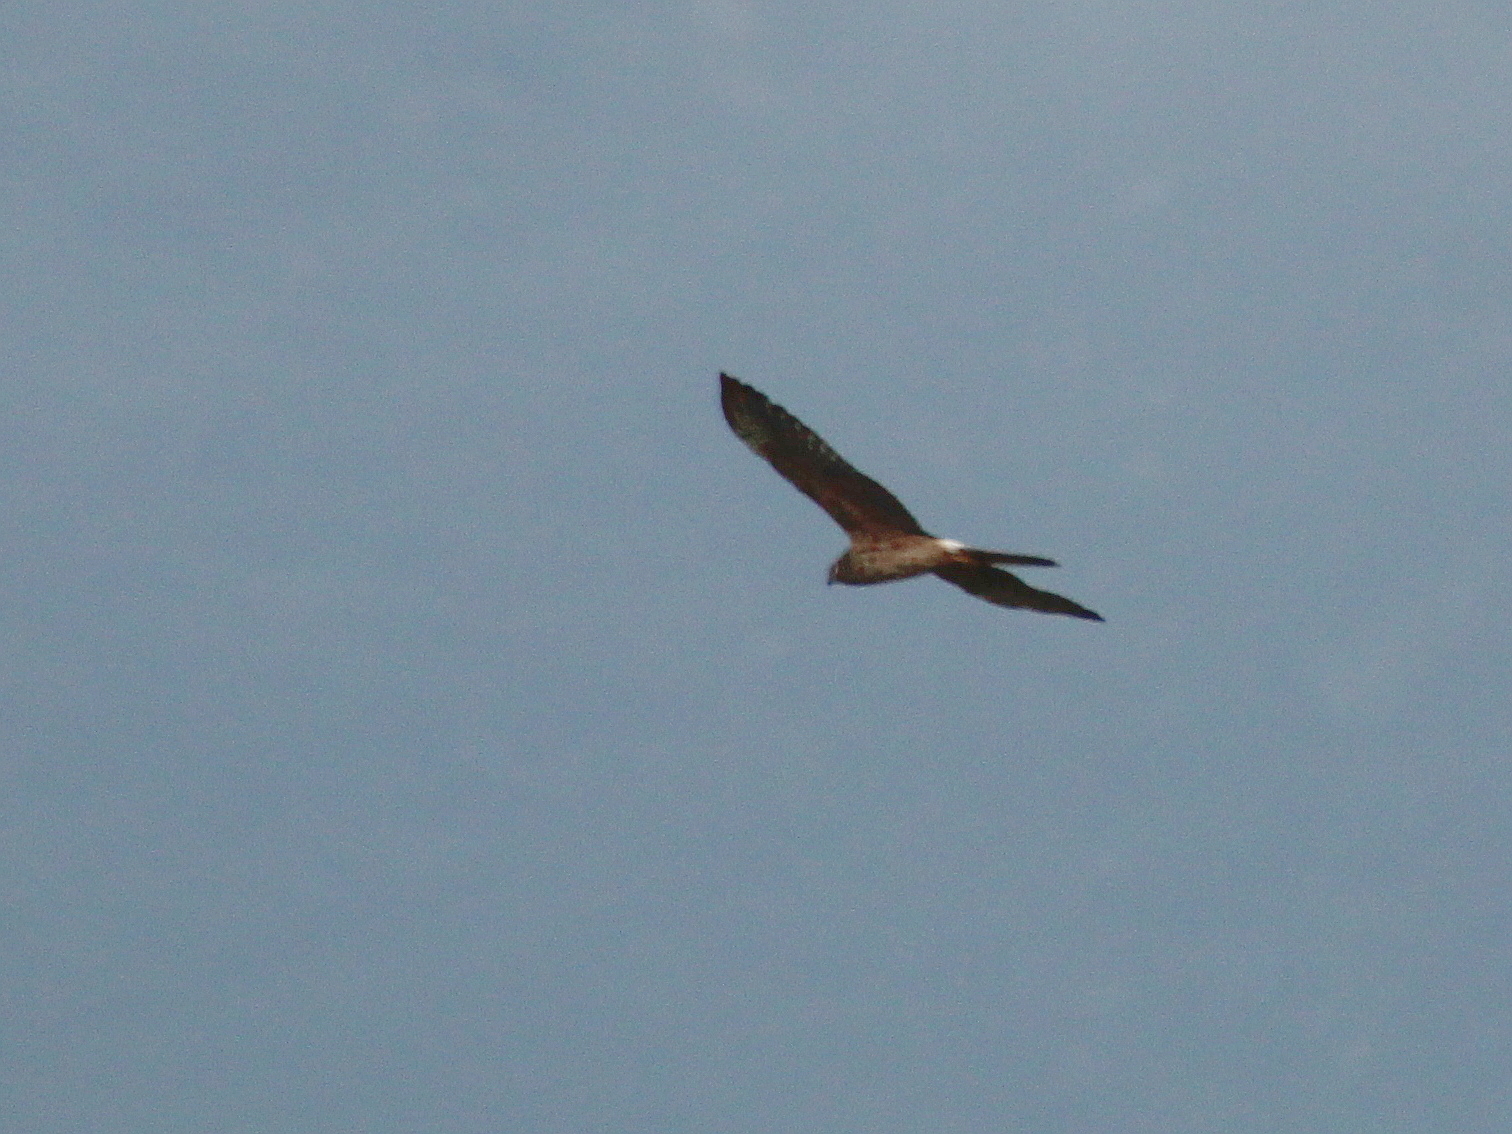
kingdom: Animalia
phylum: Chordata
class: Aves
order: Accipitriformes
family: Accipitridae
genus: Circus
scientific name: Circus pygargus
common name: Montagu's harrier
